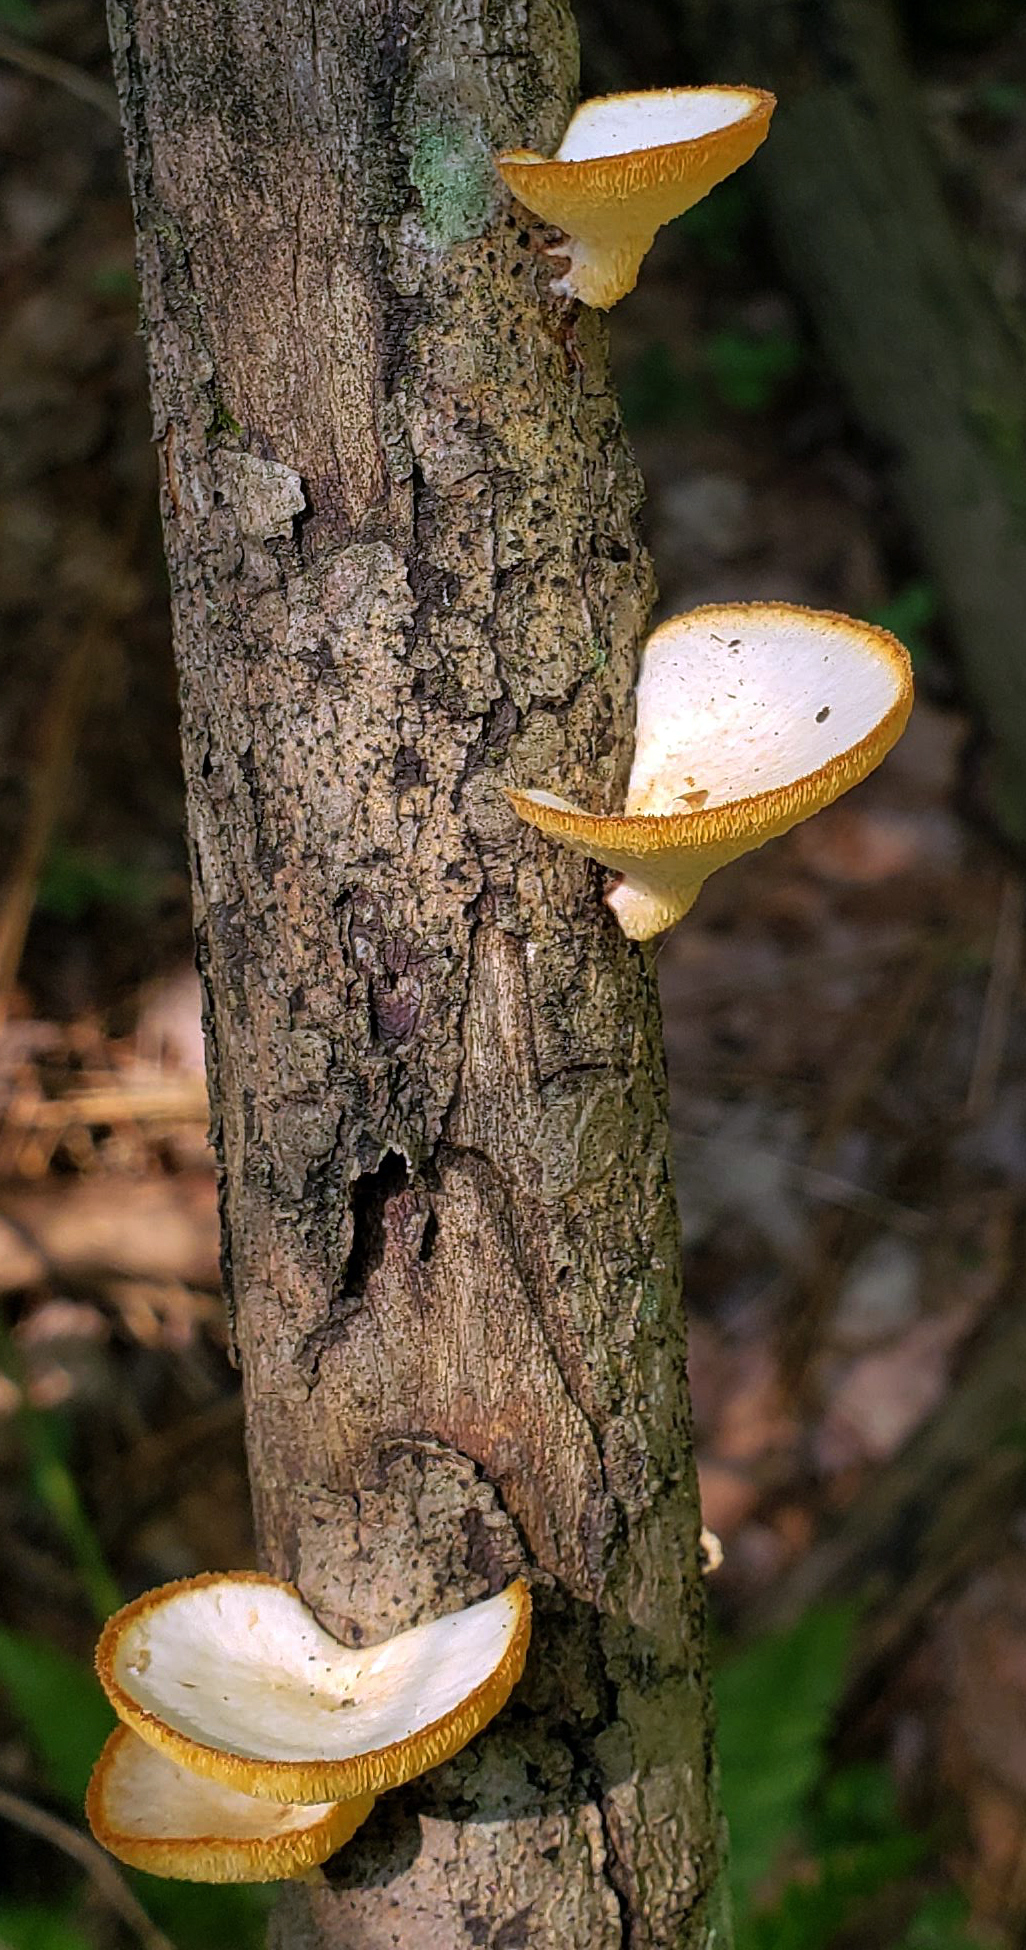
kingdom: Fungi
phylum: Basidiomycota
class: Agaricomycetes
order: Polyporales
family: Polyporaceae
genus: Neofavolus
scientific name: Neofavolus alveolaris
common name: Hexagonal-pored polypore
